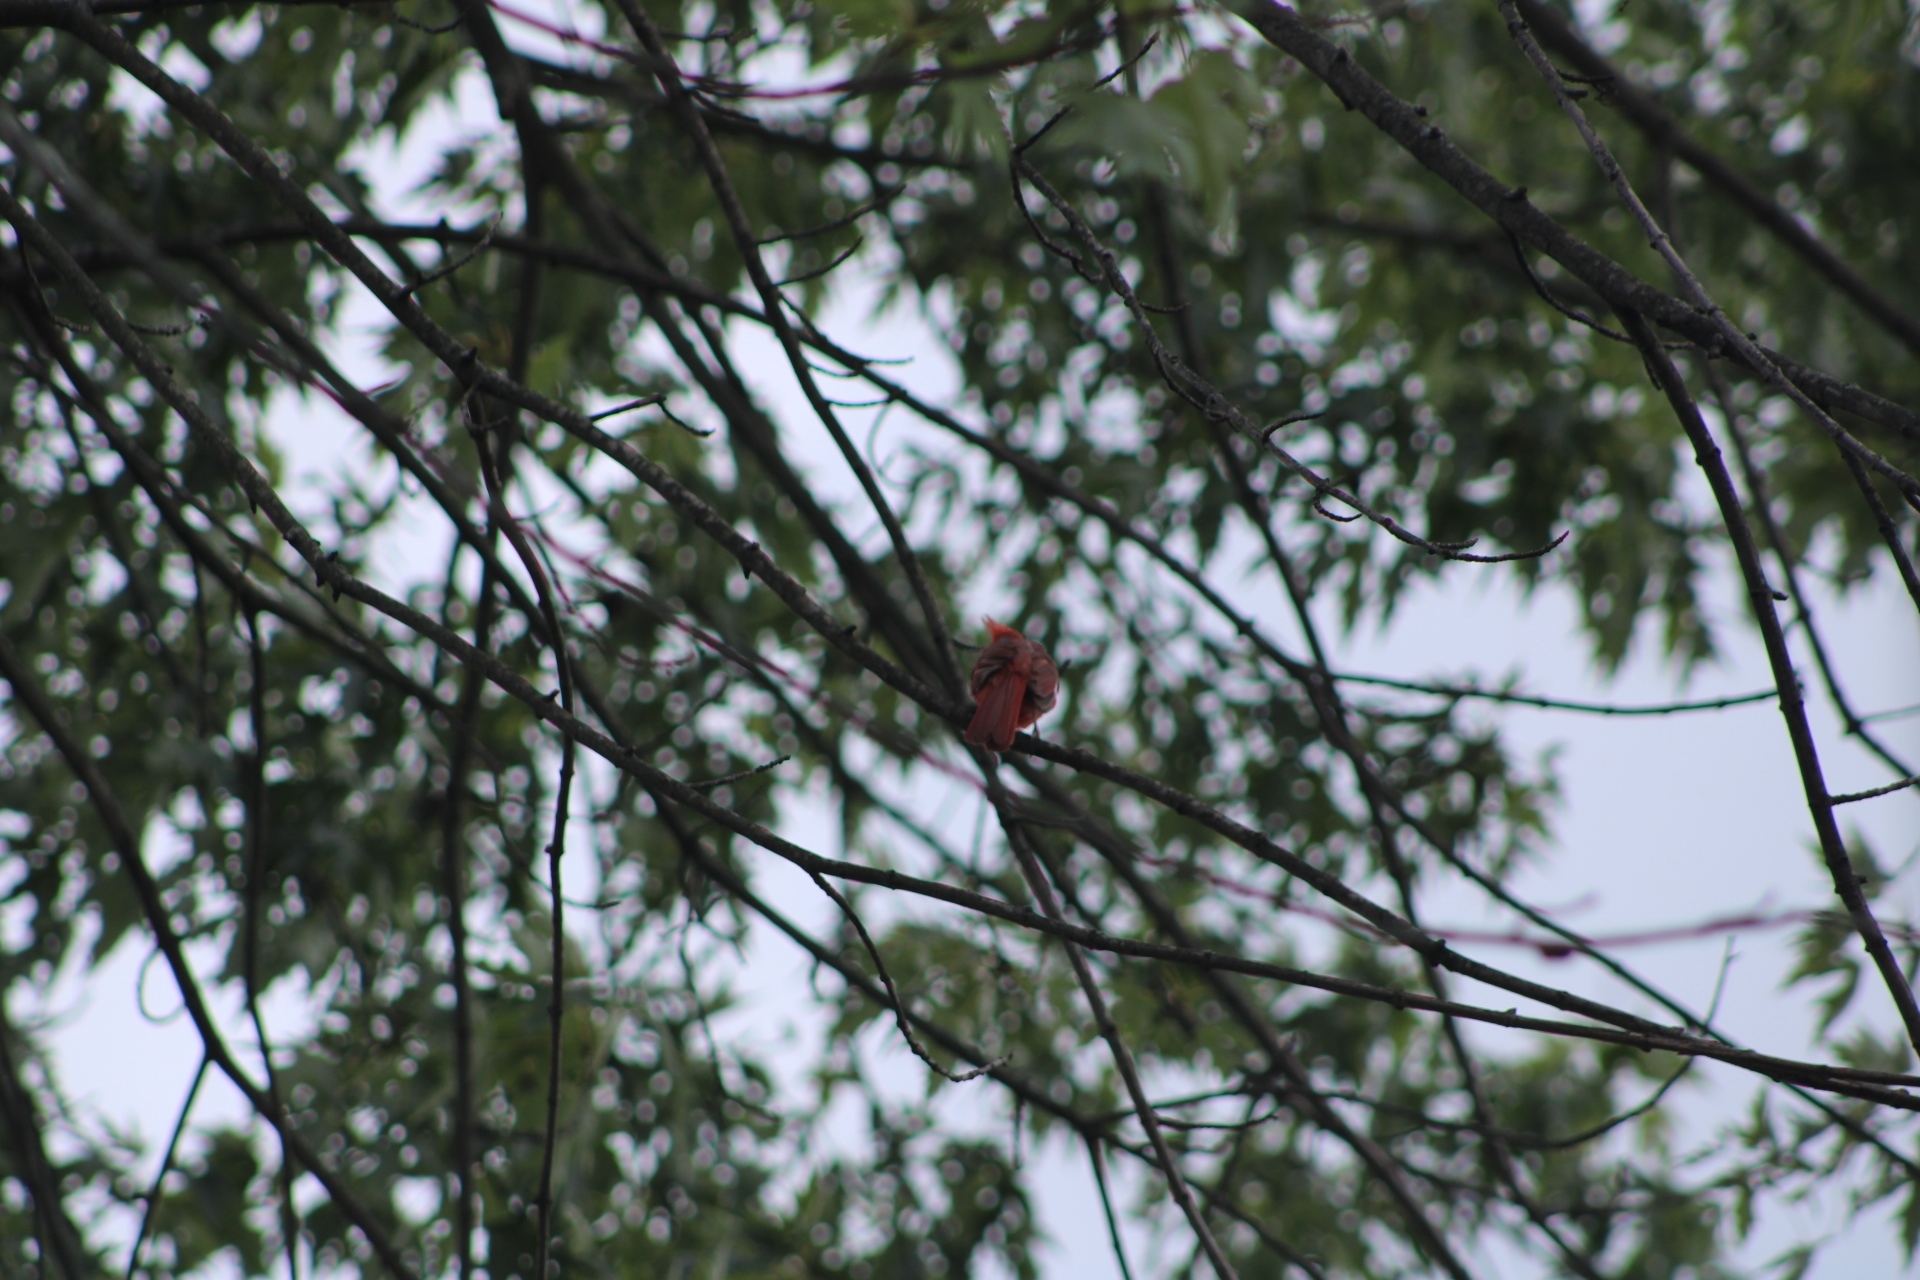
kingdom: Animalia
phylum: Chordata
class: Aves
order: Passeriformes
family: Cardinalidae
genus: Cardinalis
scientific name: Cardinalis cardinalis
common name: Northern cardinal
